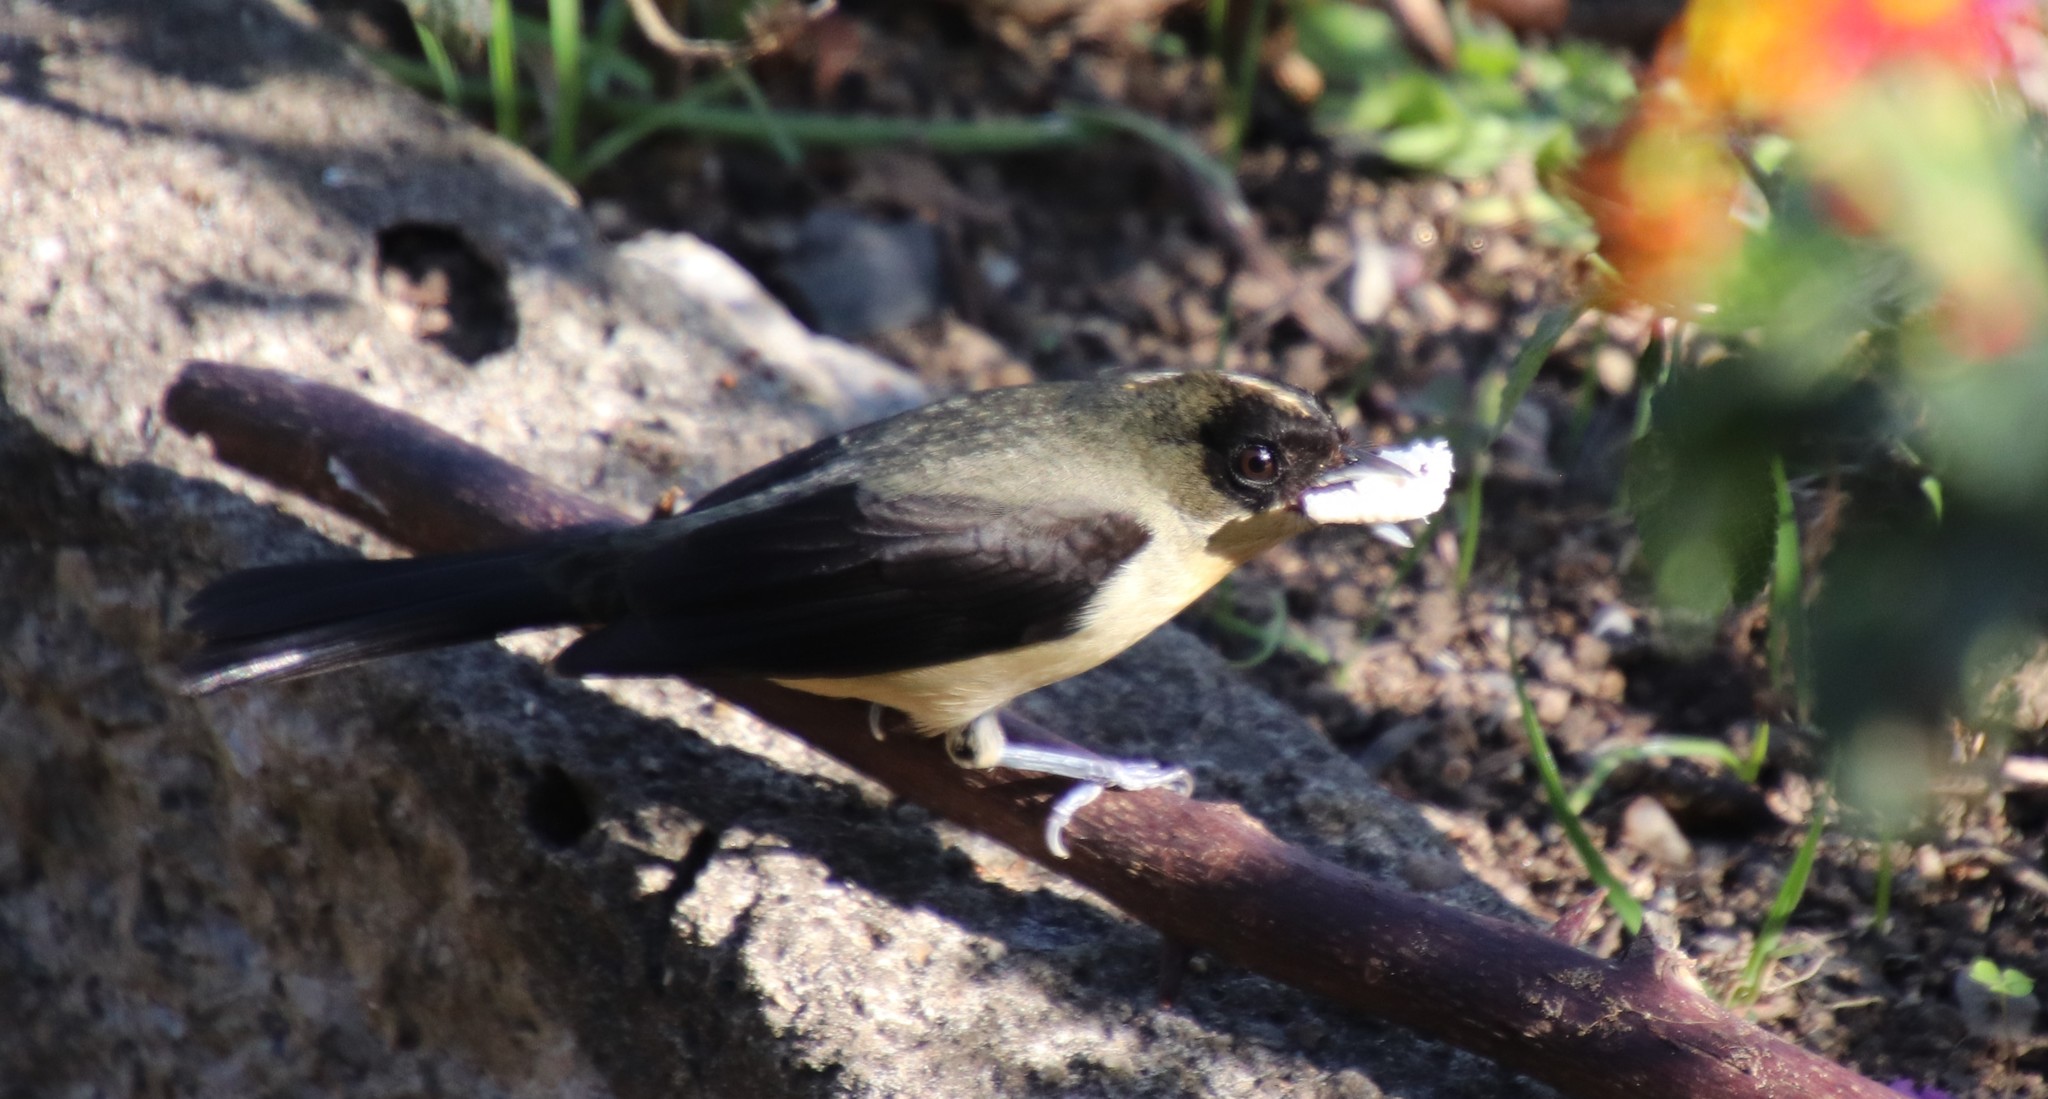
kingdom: Animalia
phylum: Chordata
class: Aves
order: Passeriformes
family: Thraupidae
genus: Trichothraupis
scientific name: Trichothraupis melanops
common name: Black-goggled tanager
